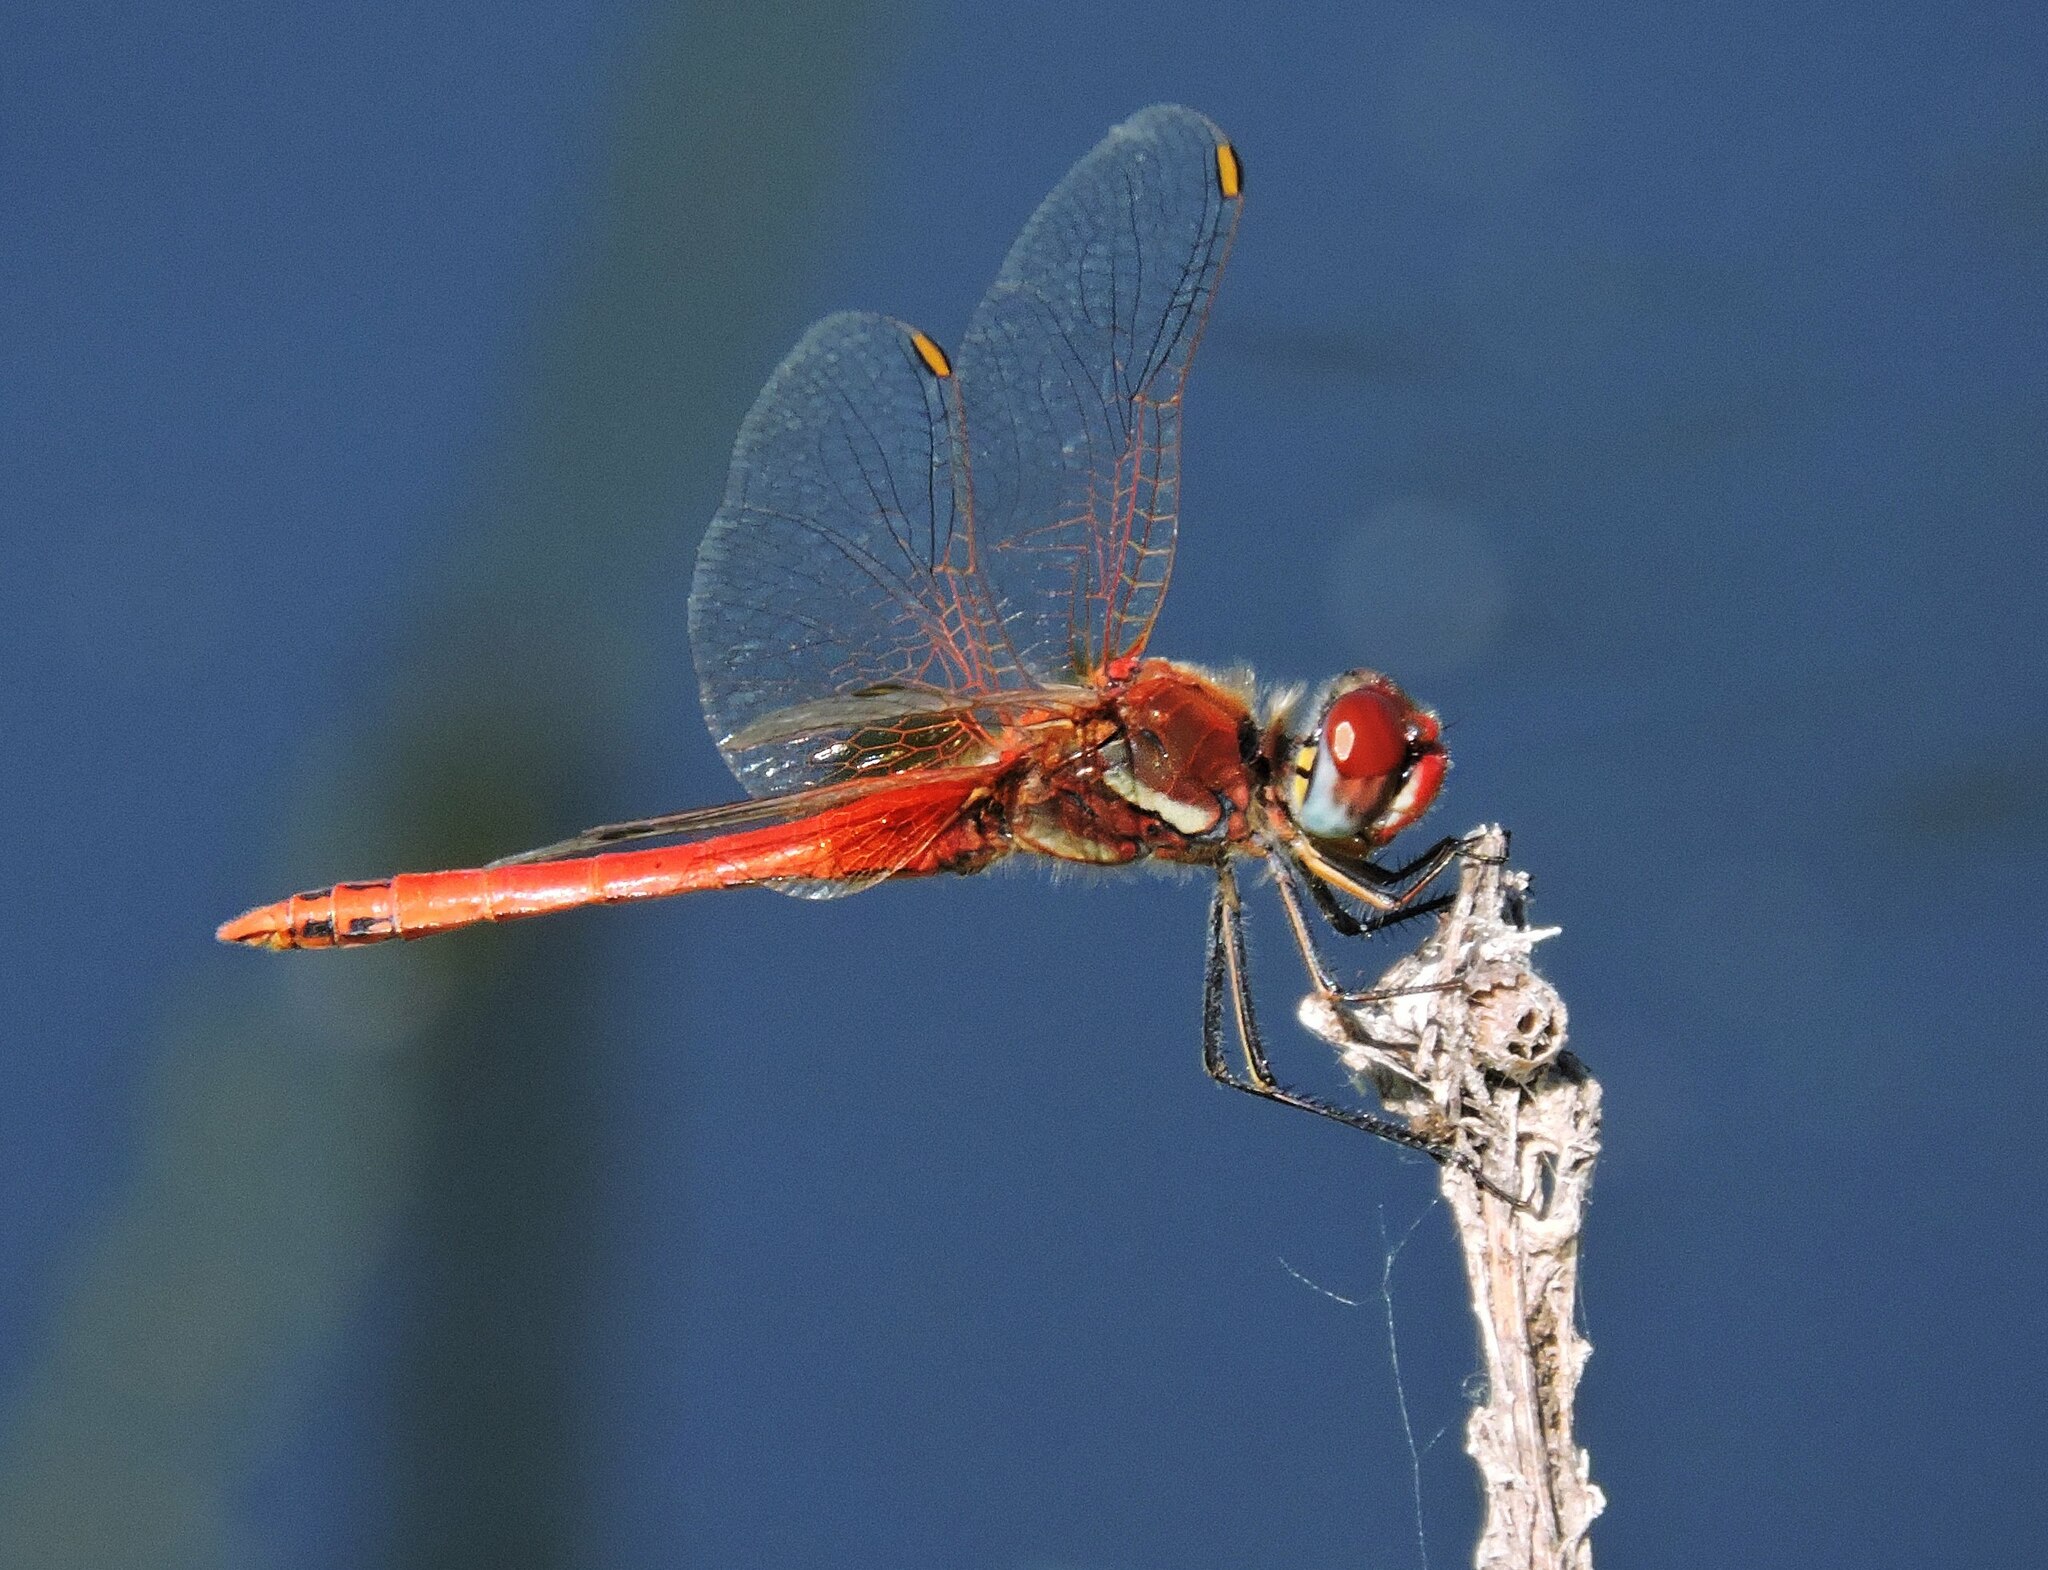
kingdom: Animalia
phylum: Arthropoda
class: Insecta
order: Odonata
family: Libellulidae
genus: Sympetrum
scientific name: Sympetrum fonscolombii
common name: Red-veined darter
